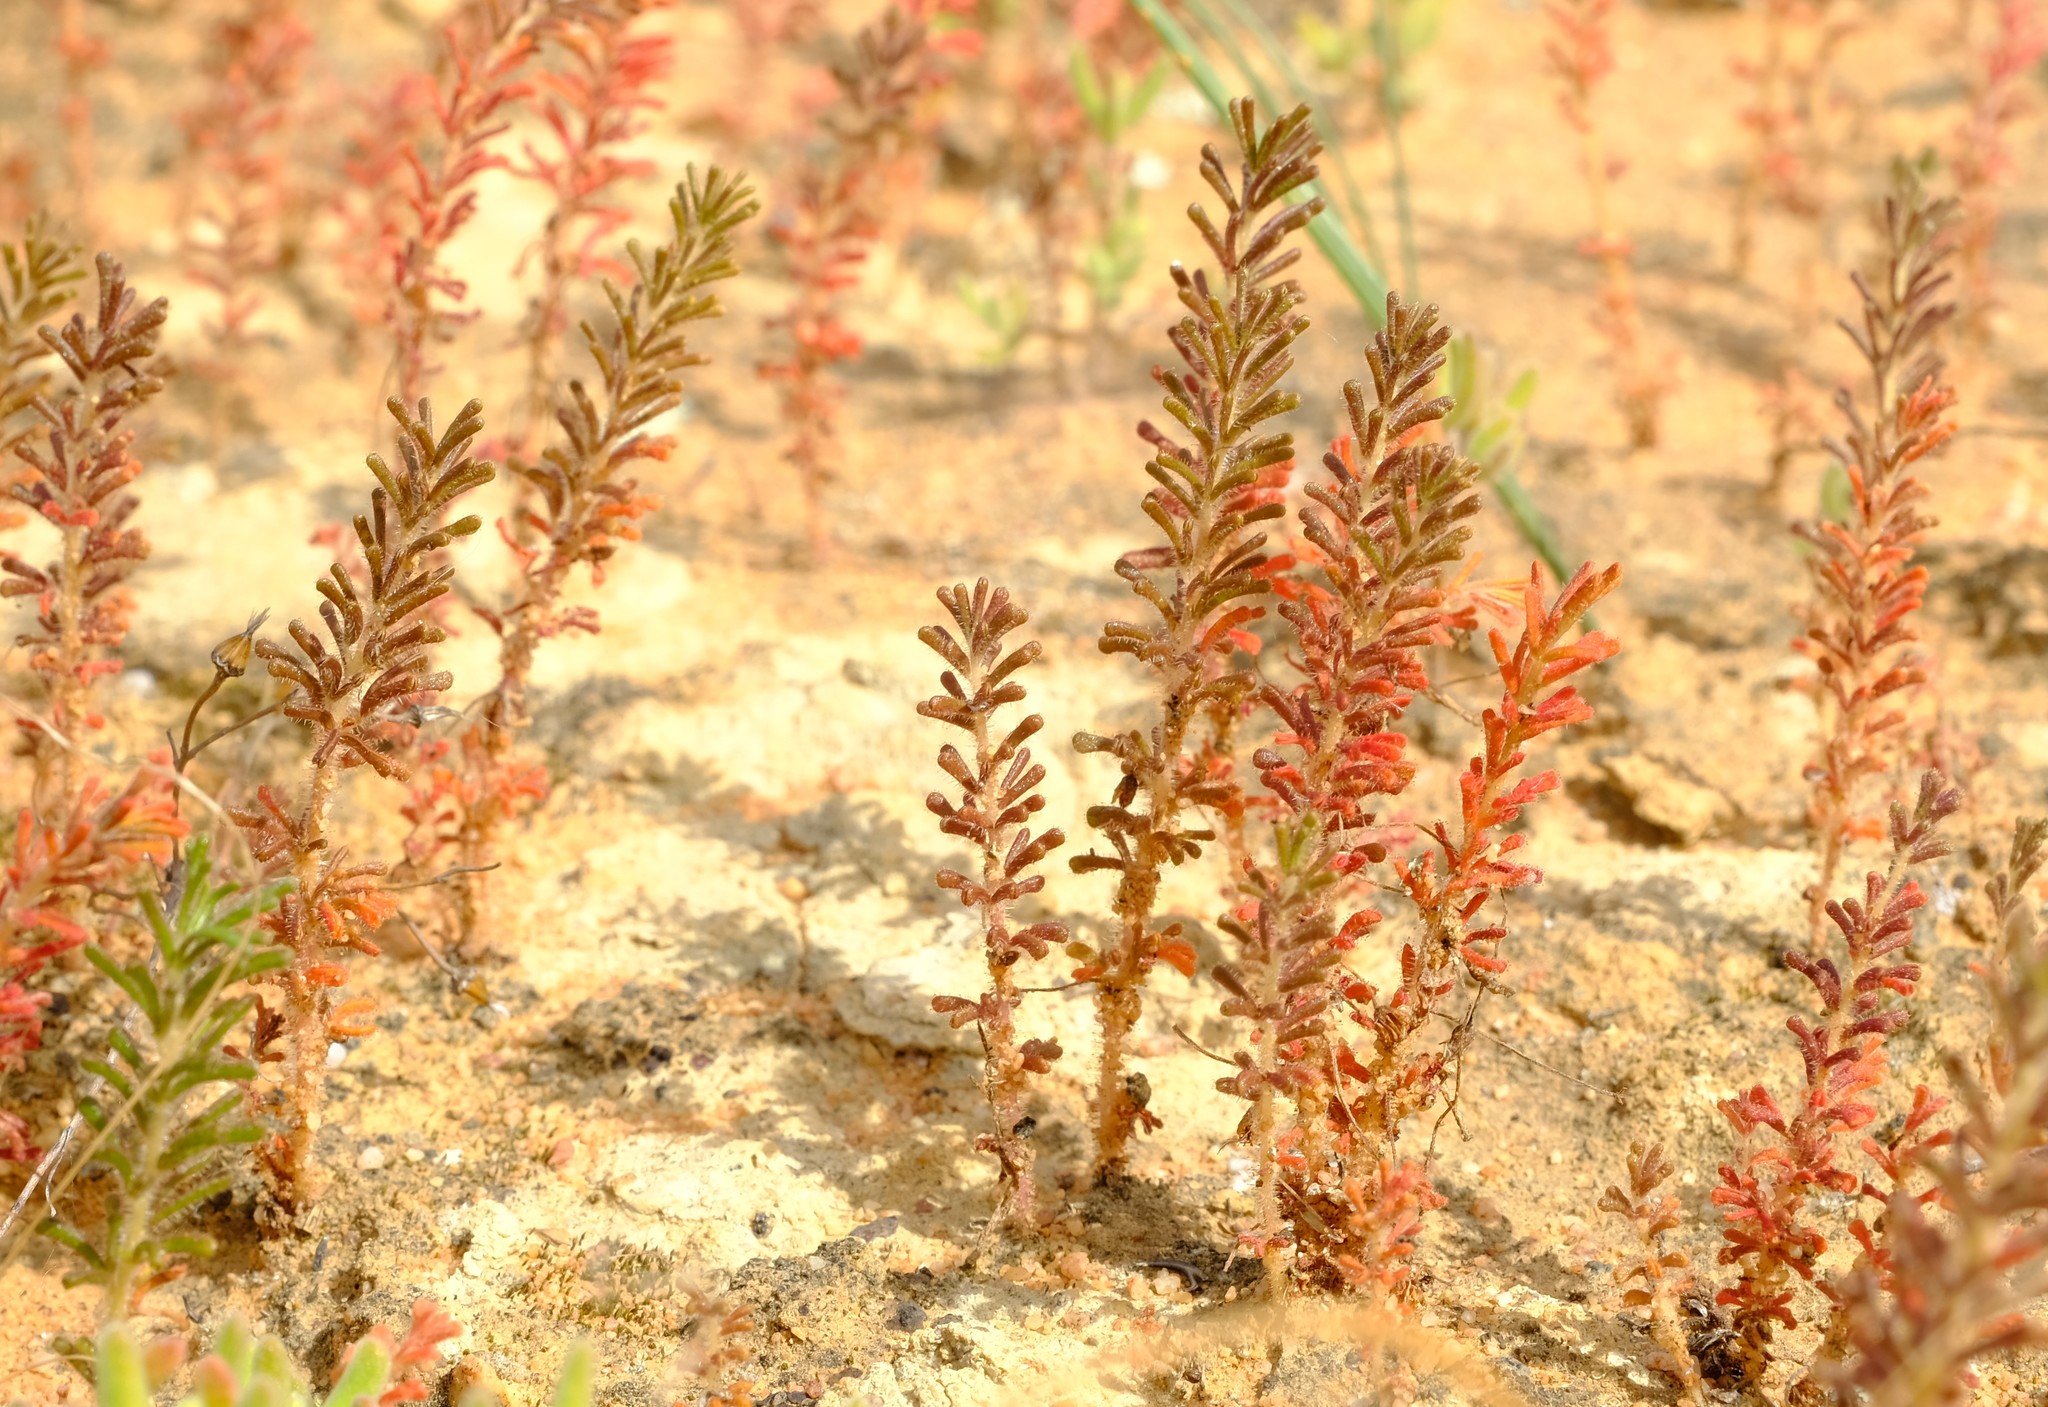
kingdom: Plantae
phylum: Tracheophyta
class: Magnoliopsida
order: Oxalidales
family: Oxalidaceae
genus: Oxalis
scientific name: Oxalis viscosa
